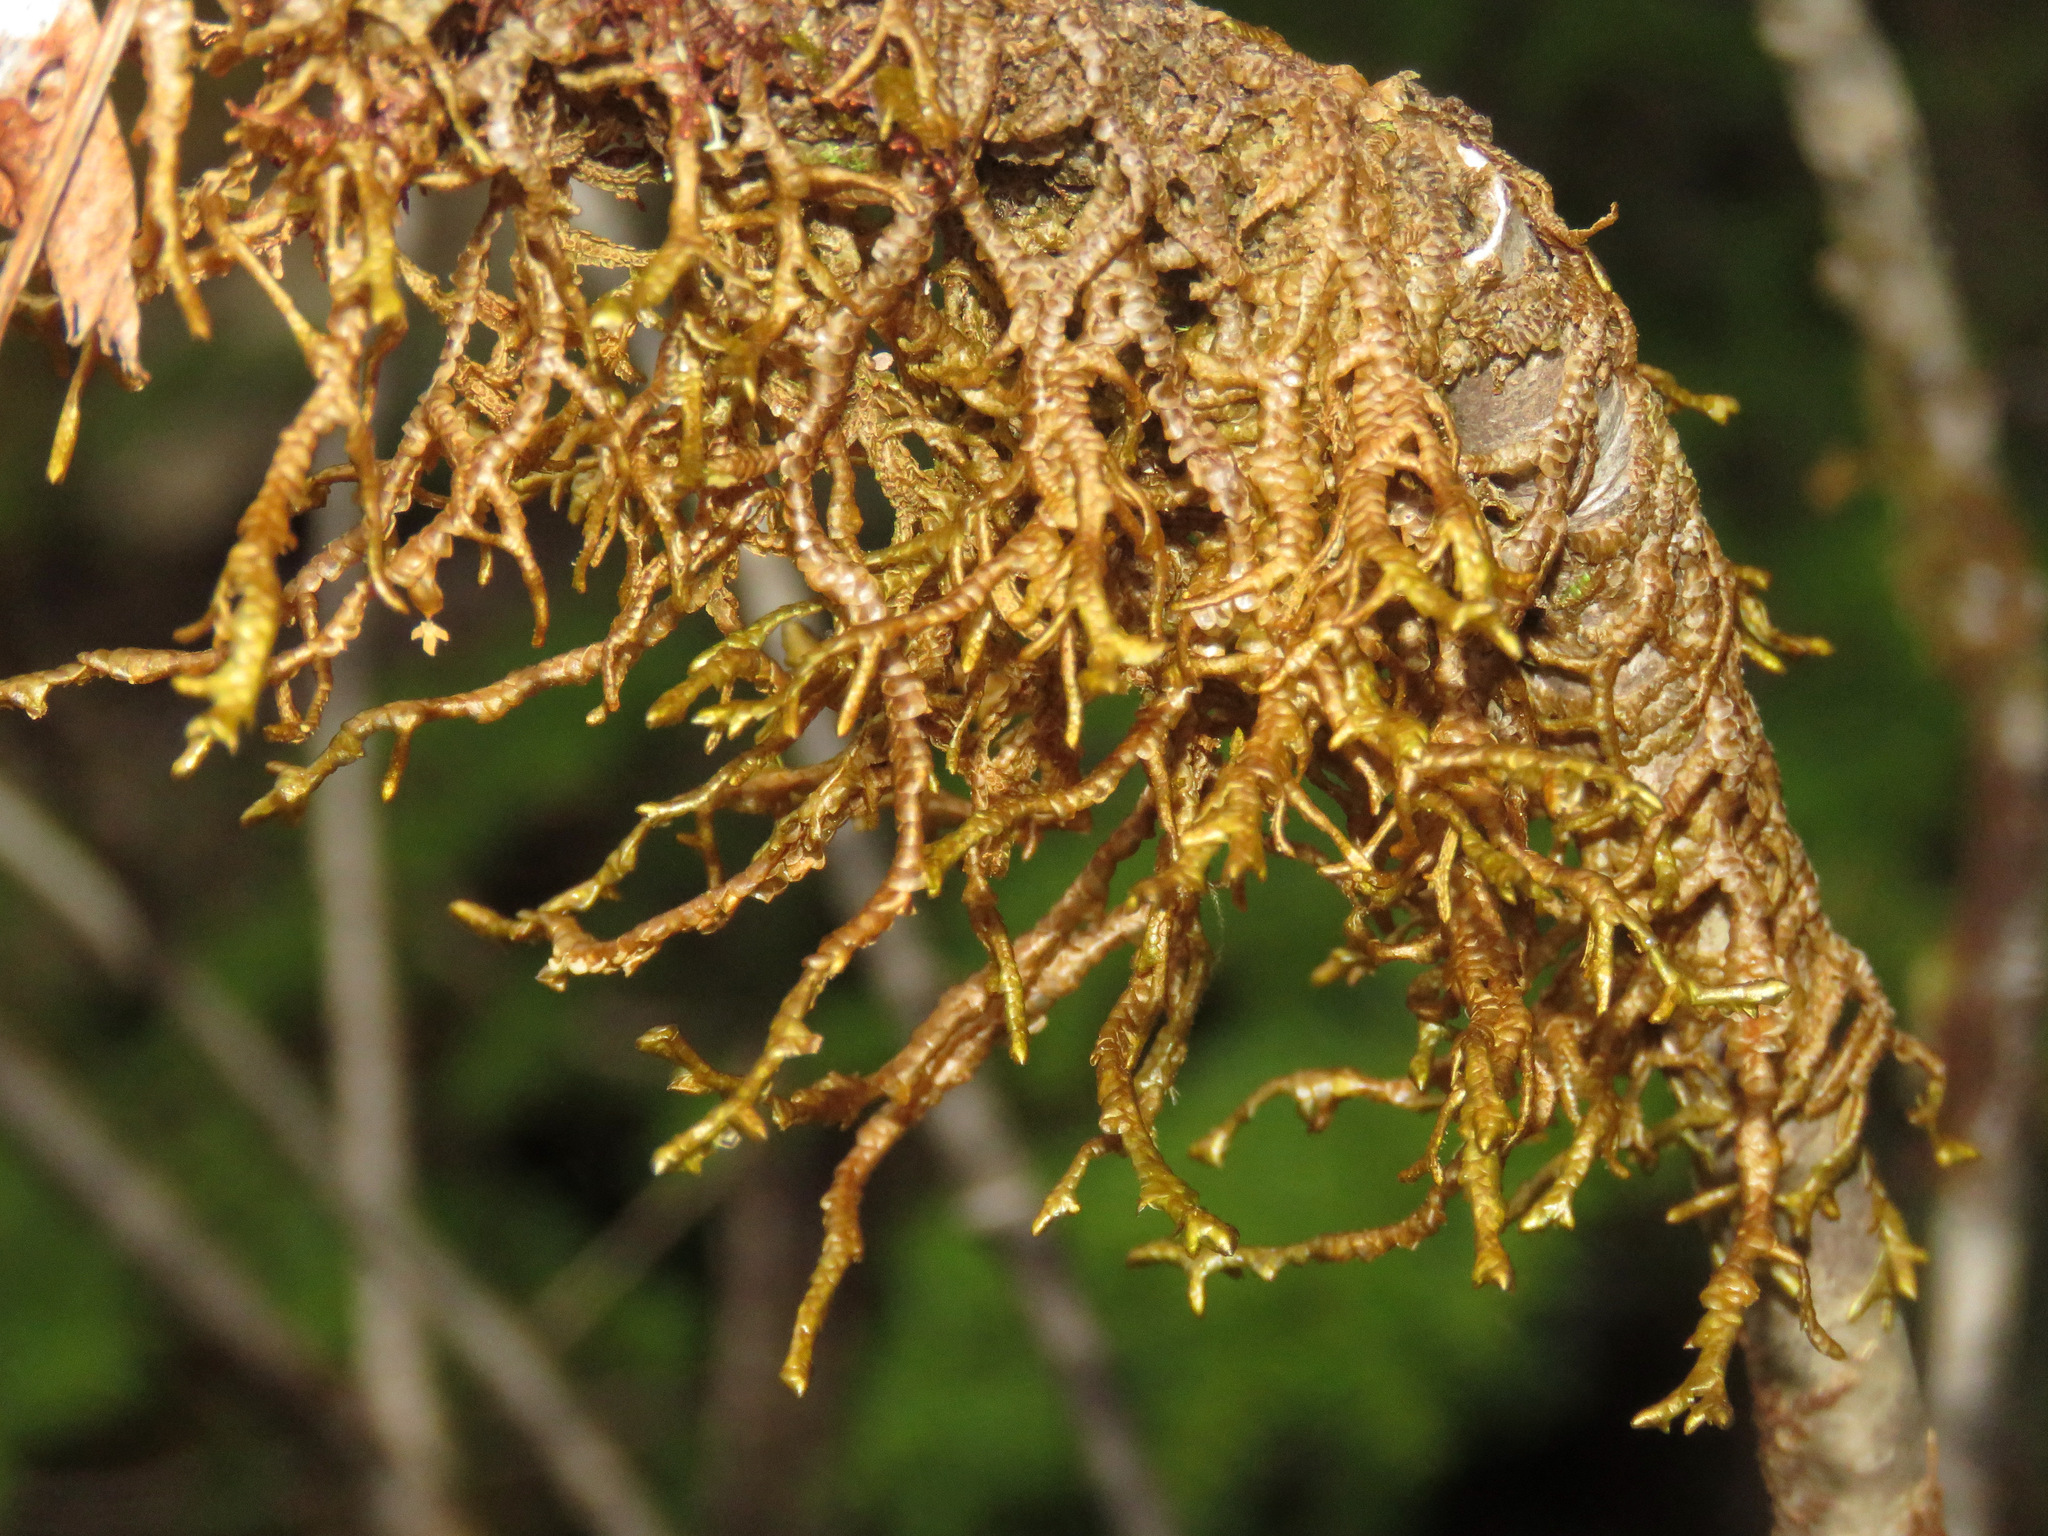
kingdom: Plantae
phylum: Marchantiophyta
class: Jungermanniopsida
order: Porellales
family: Porellaceae
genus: Porella
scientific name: Porella navicularis
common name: Tree ruffle liverwort
